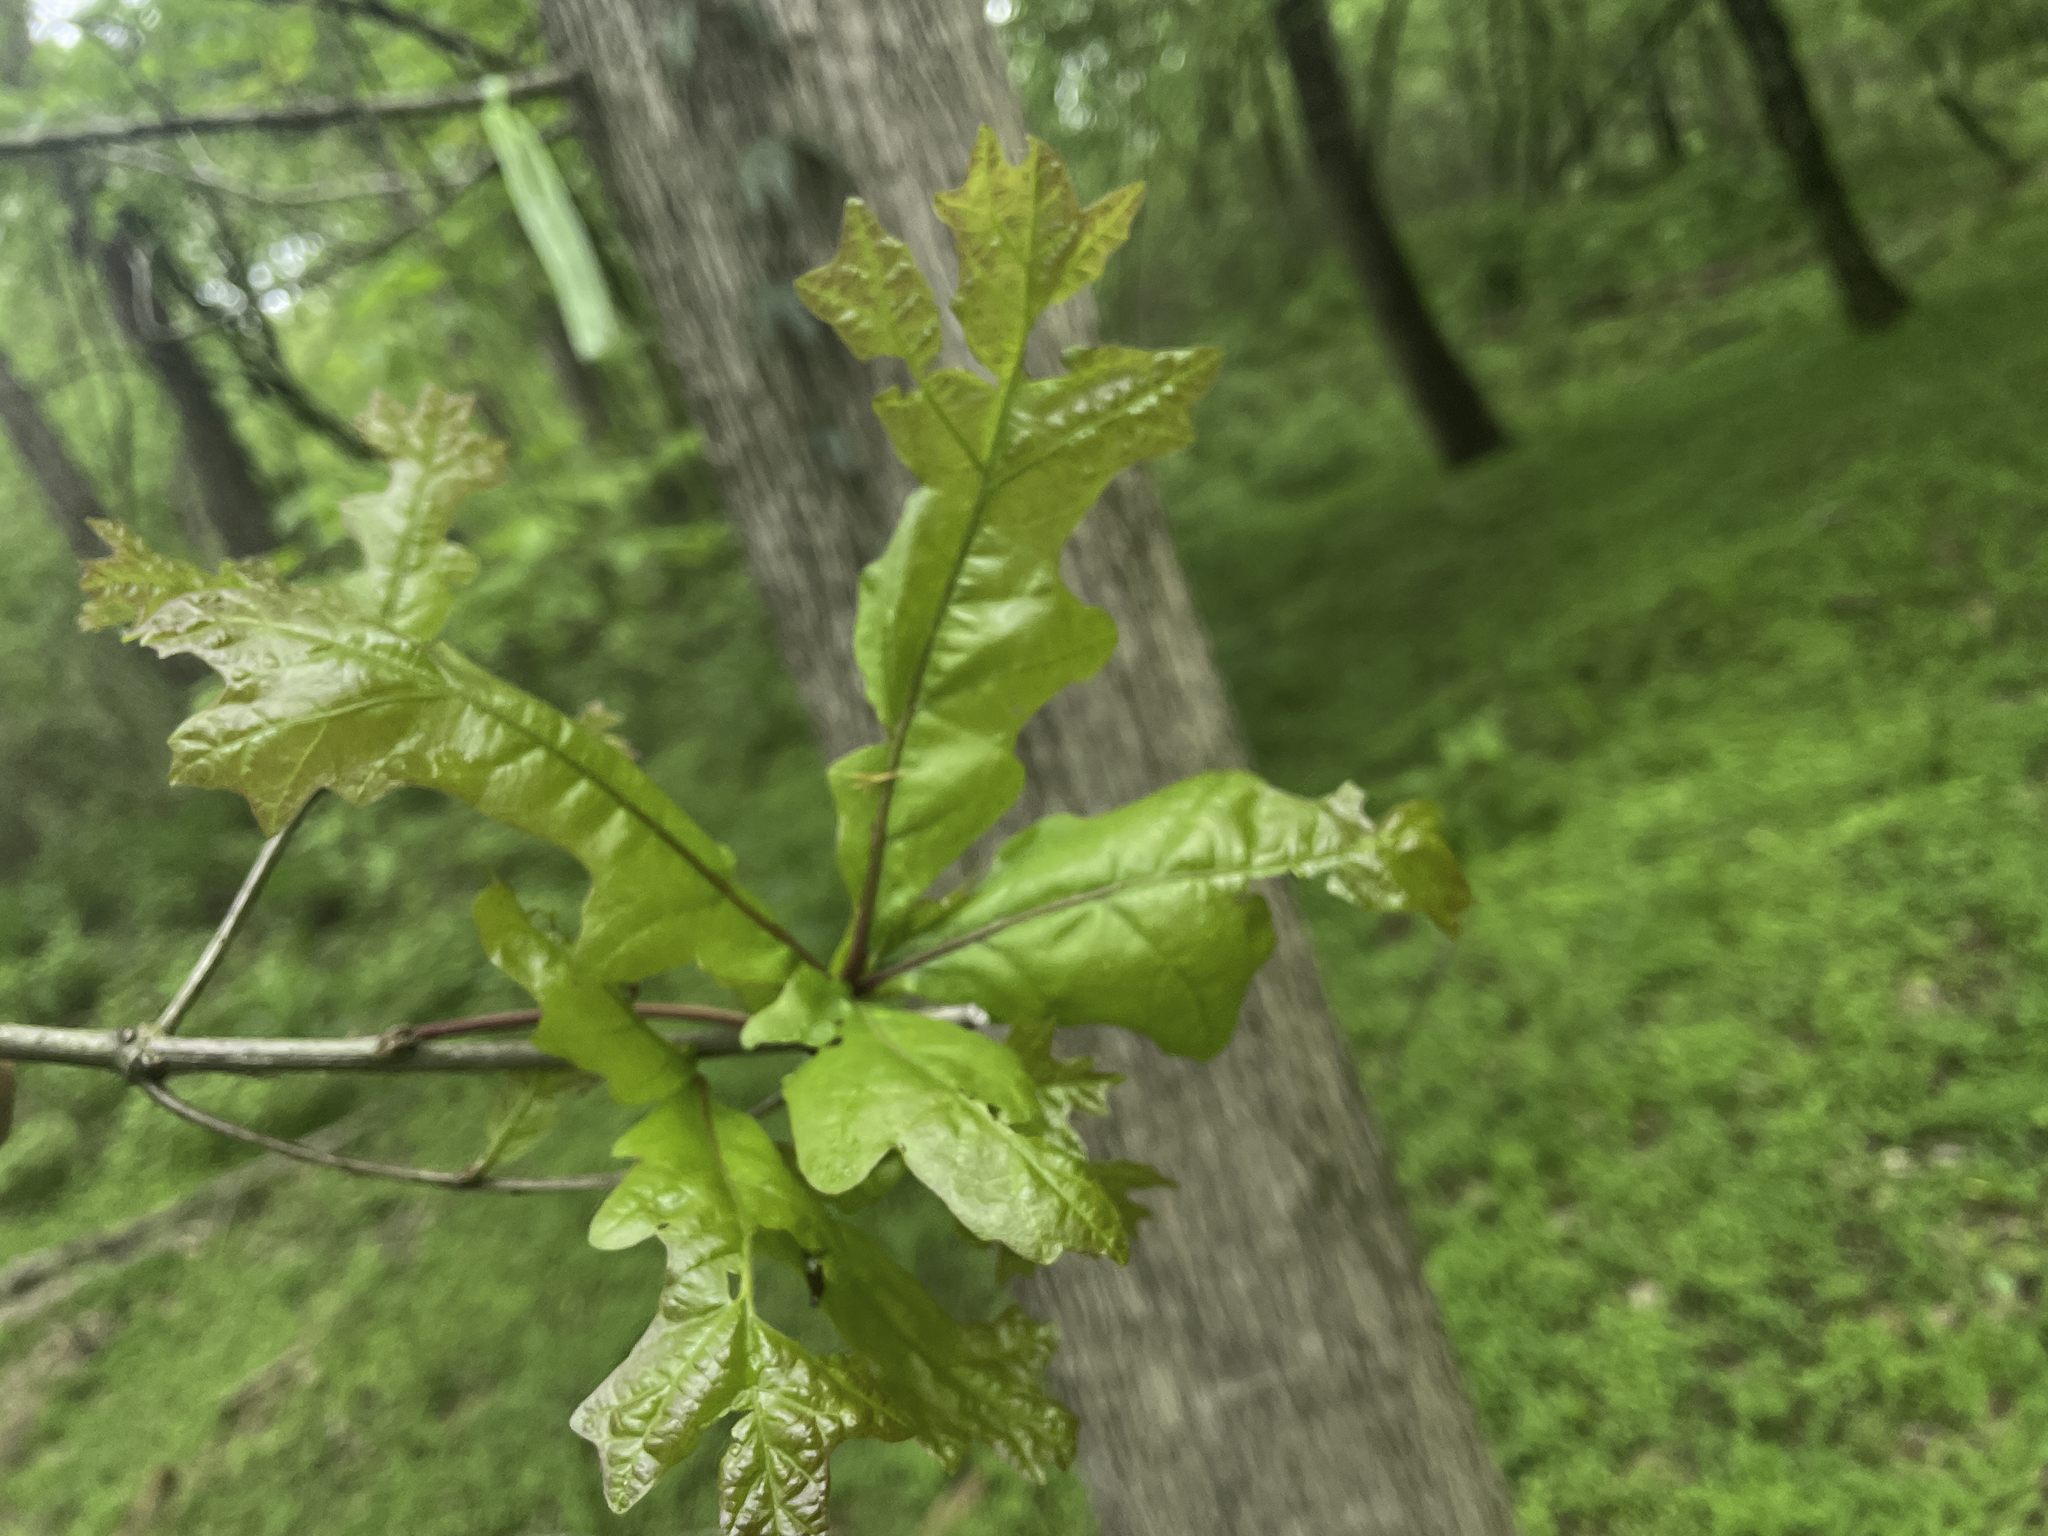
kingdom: Animalia
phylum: Arthropoda
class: Insecta
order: Hymenoptera
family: Cynipidae
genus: Andricus
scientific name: Andricus
